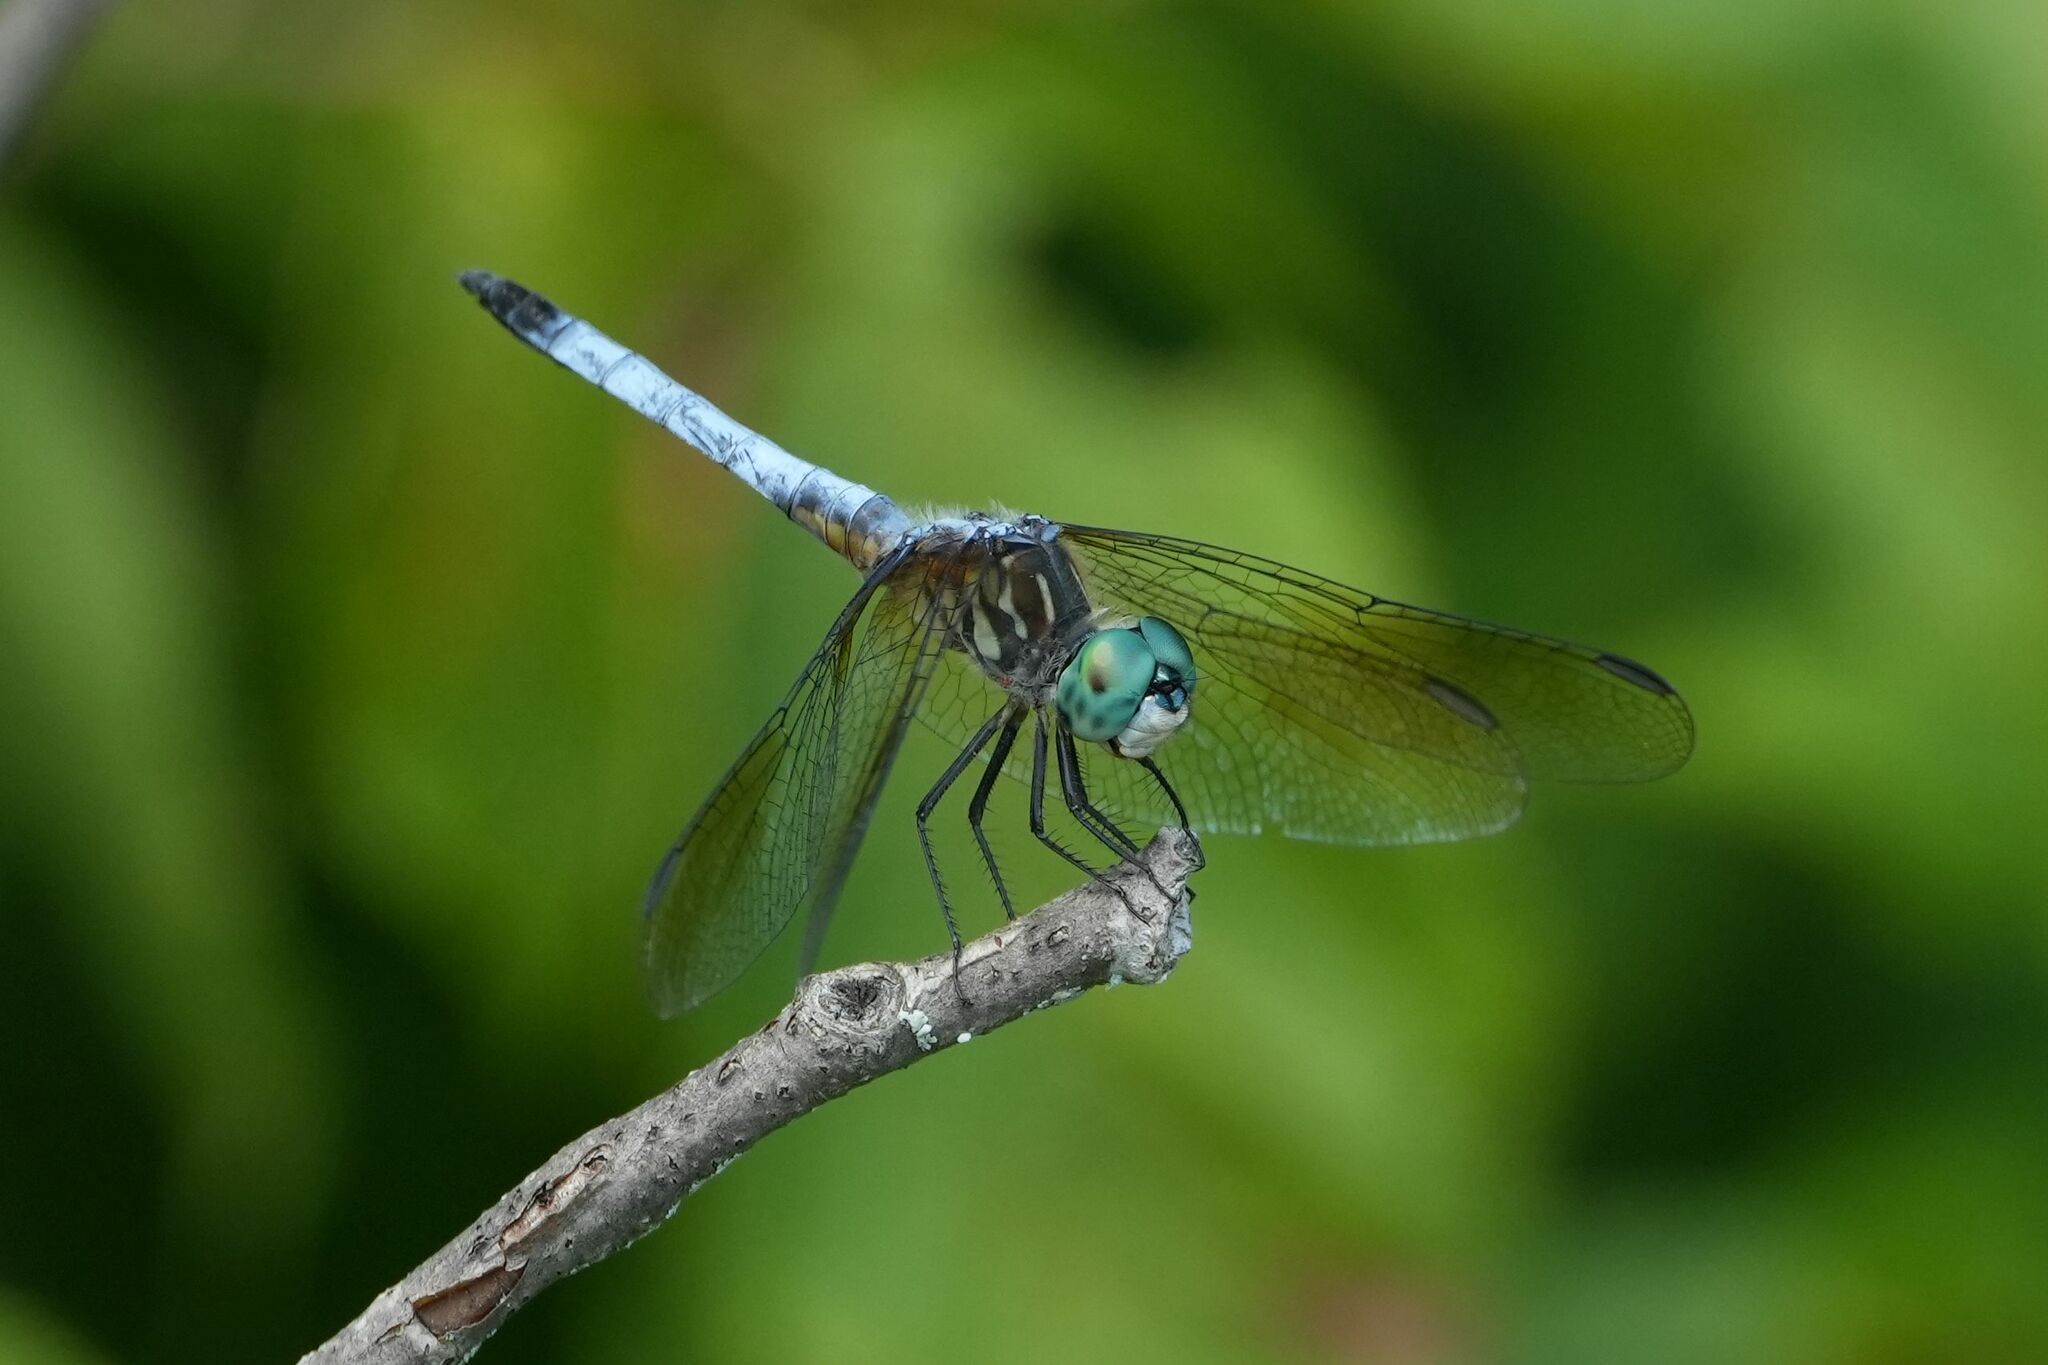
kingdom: Animalia
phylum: Arthropoda
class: Insecta
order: Odonata
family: Libellulidae
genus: Pachydiplax
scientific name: Pachydiplax longipennis
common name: Blue dasher
